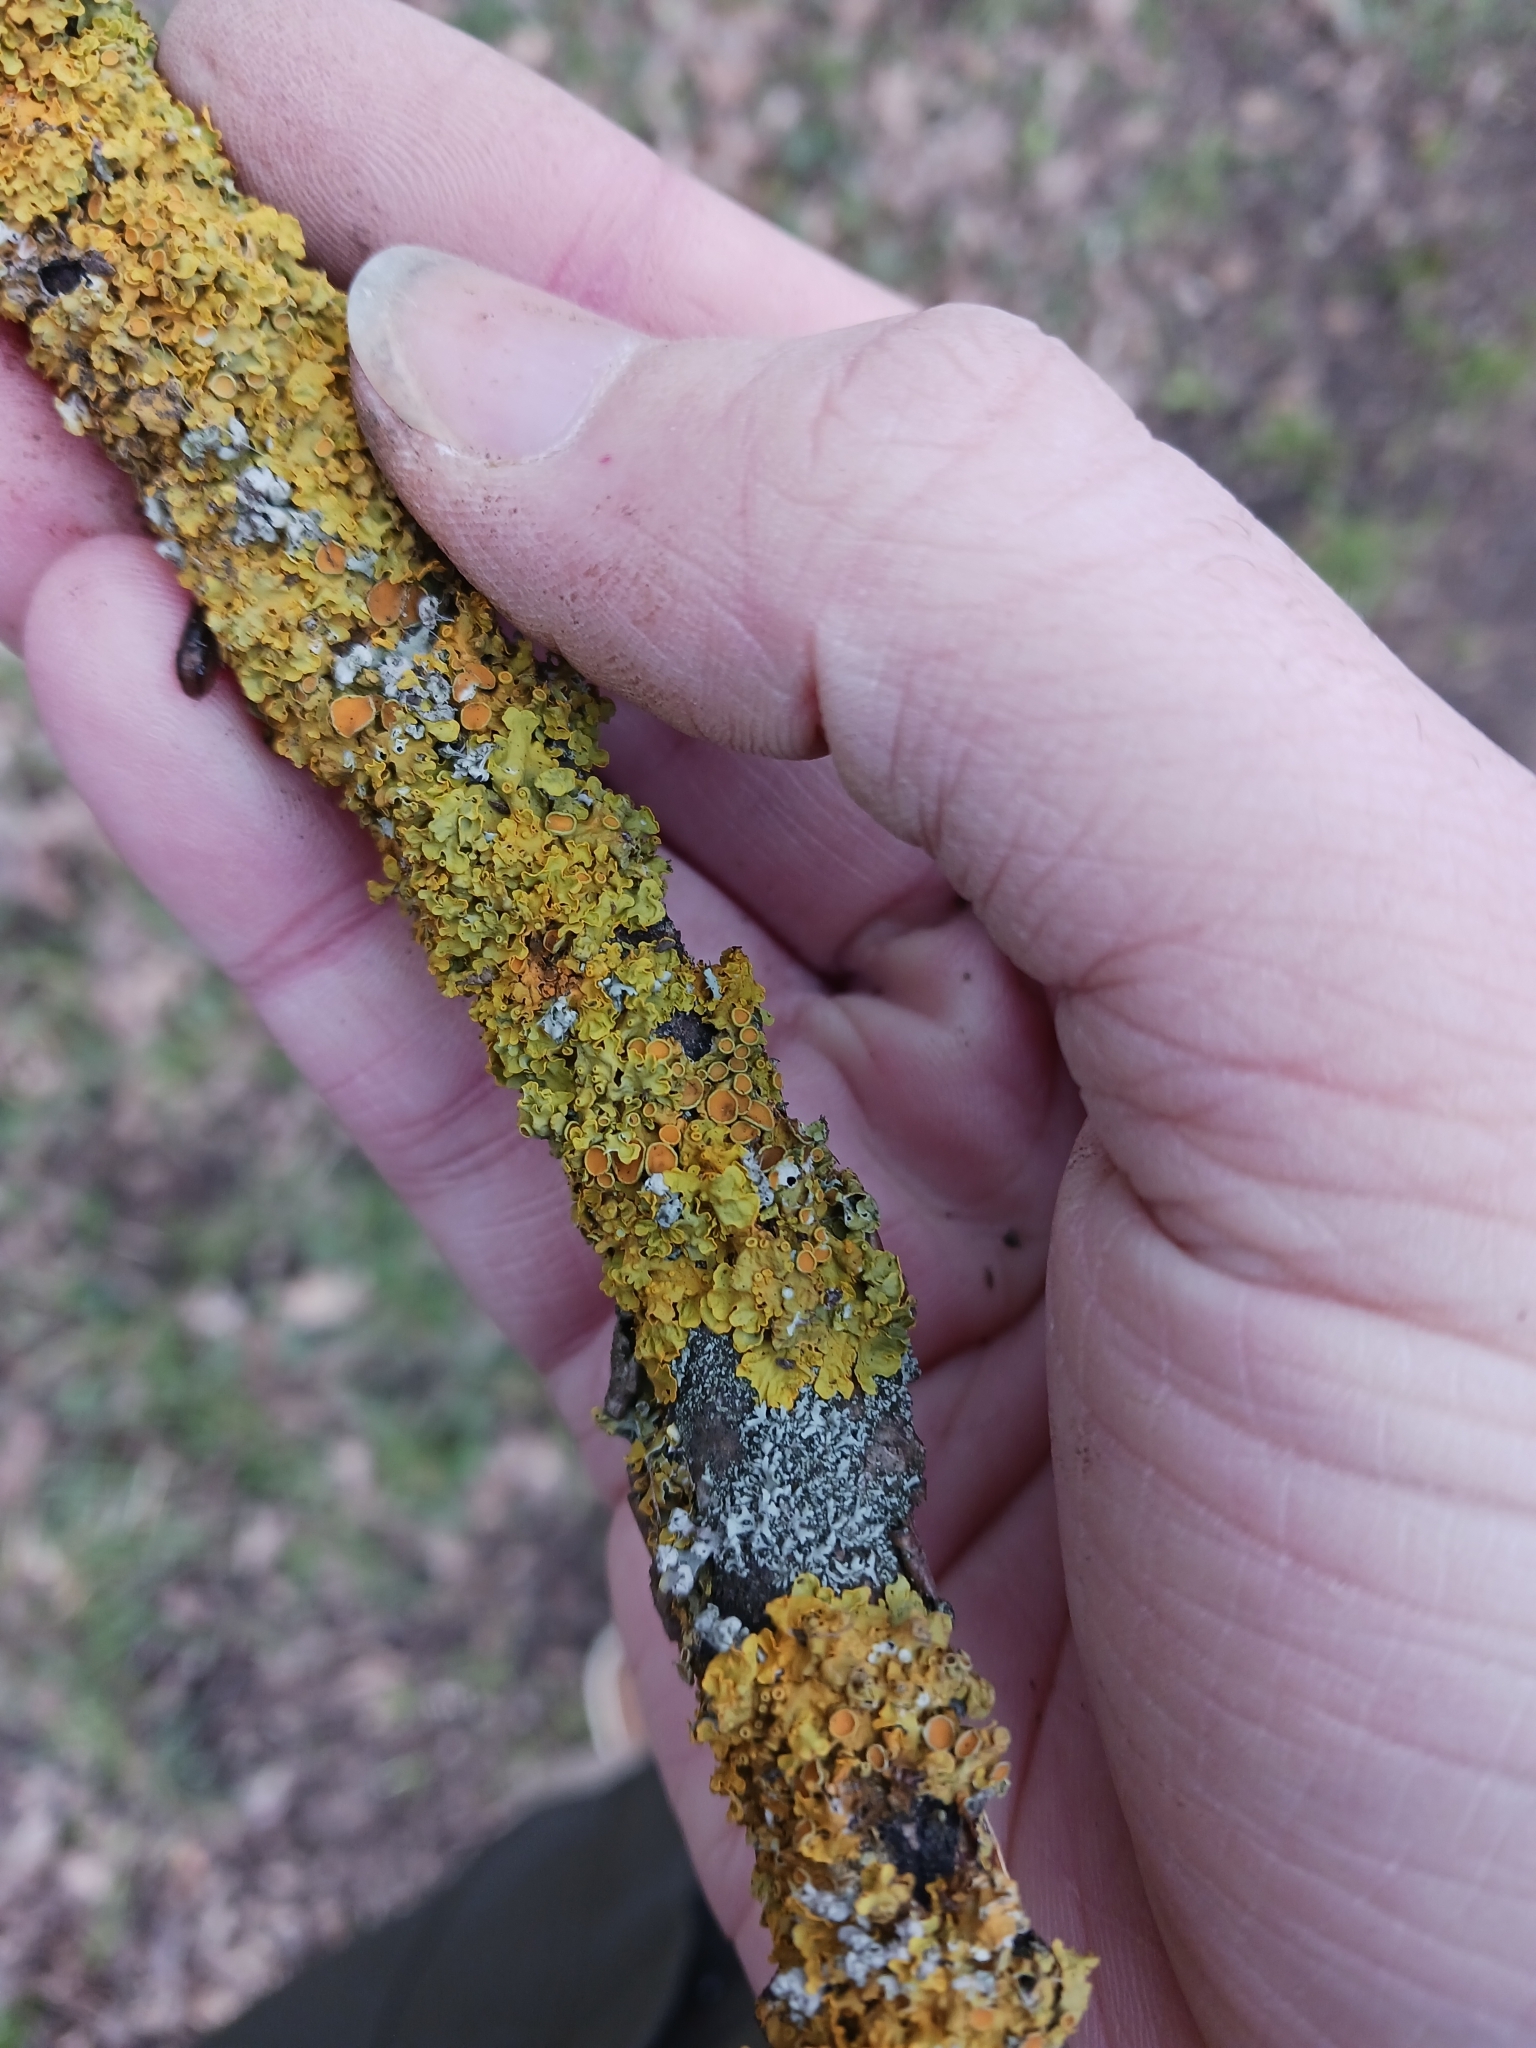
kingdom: Fungi
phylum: Ascomycota
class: Lecanoromycetes
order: Teloschistales
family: Teloschistaceae
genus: Xanthoria
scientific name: Xanthoria parietina
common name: Common orange lichen
